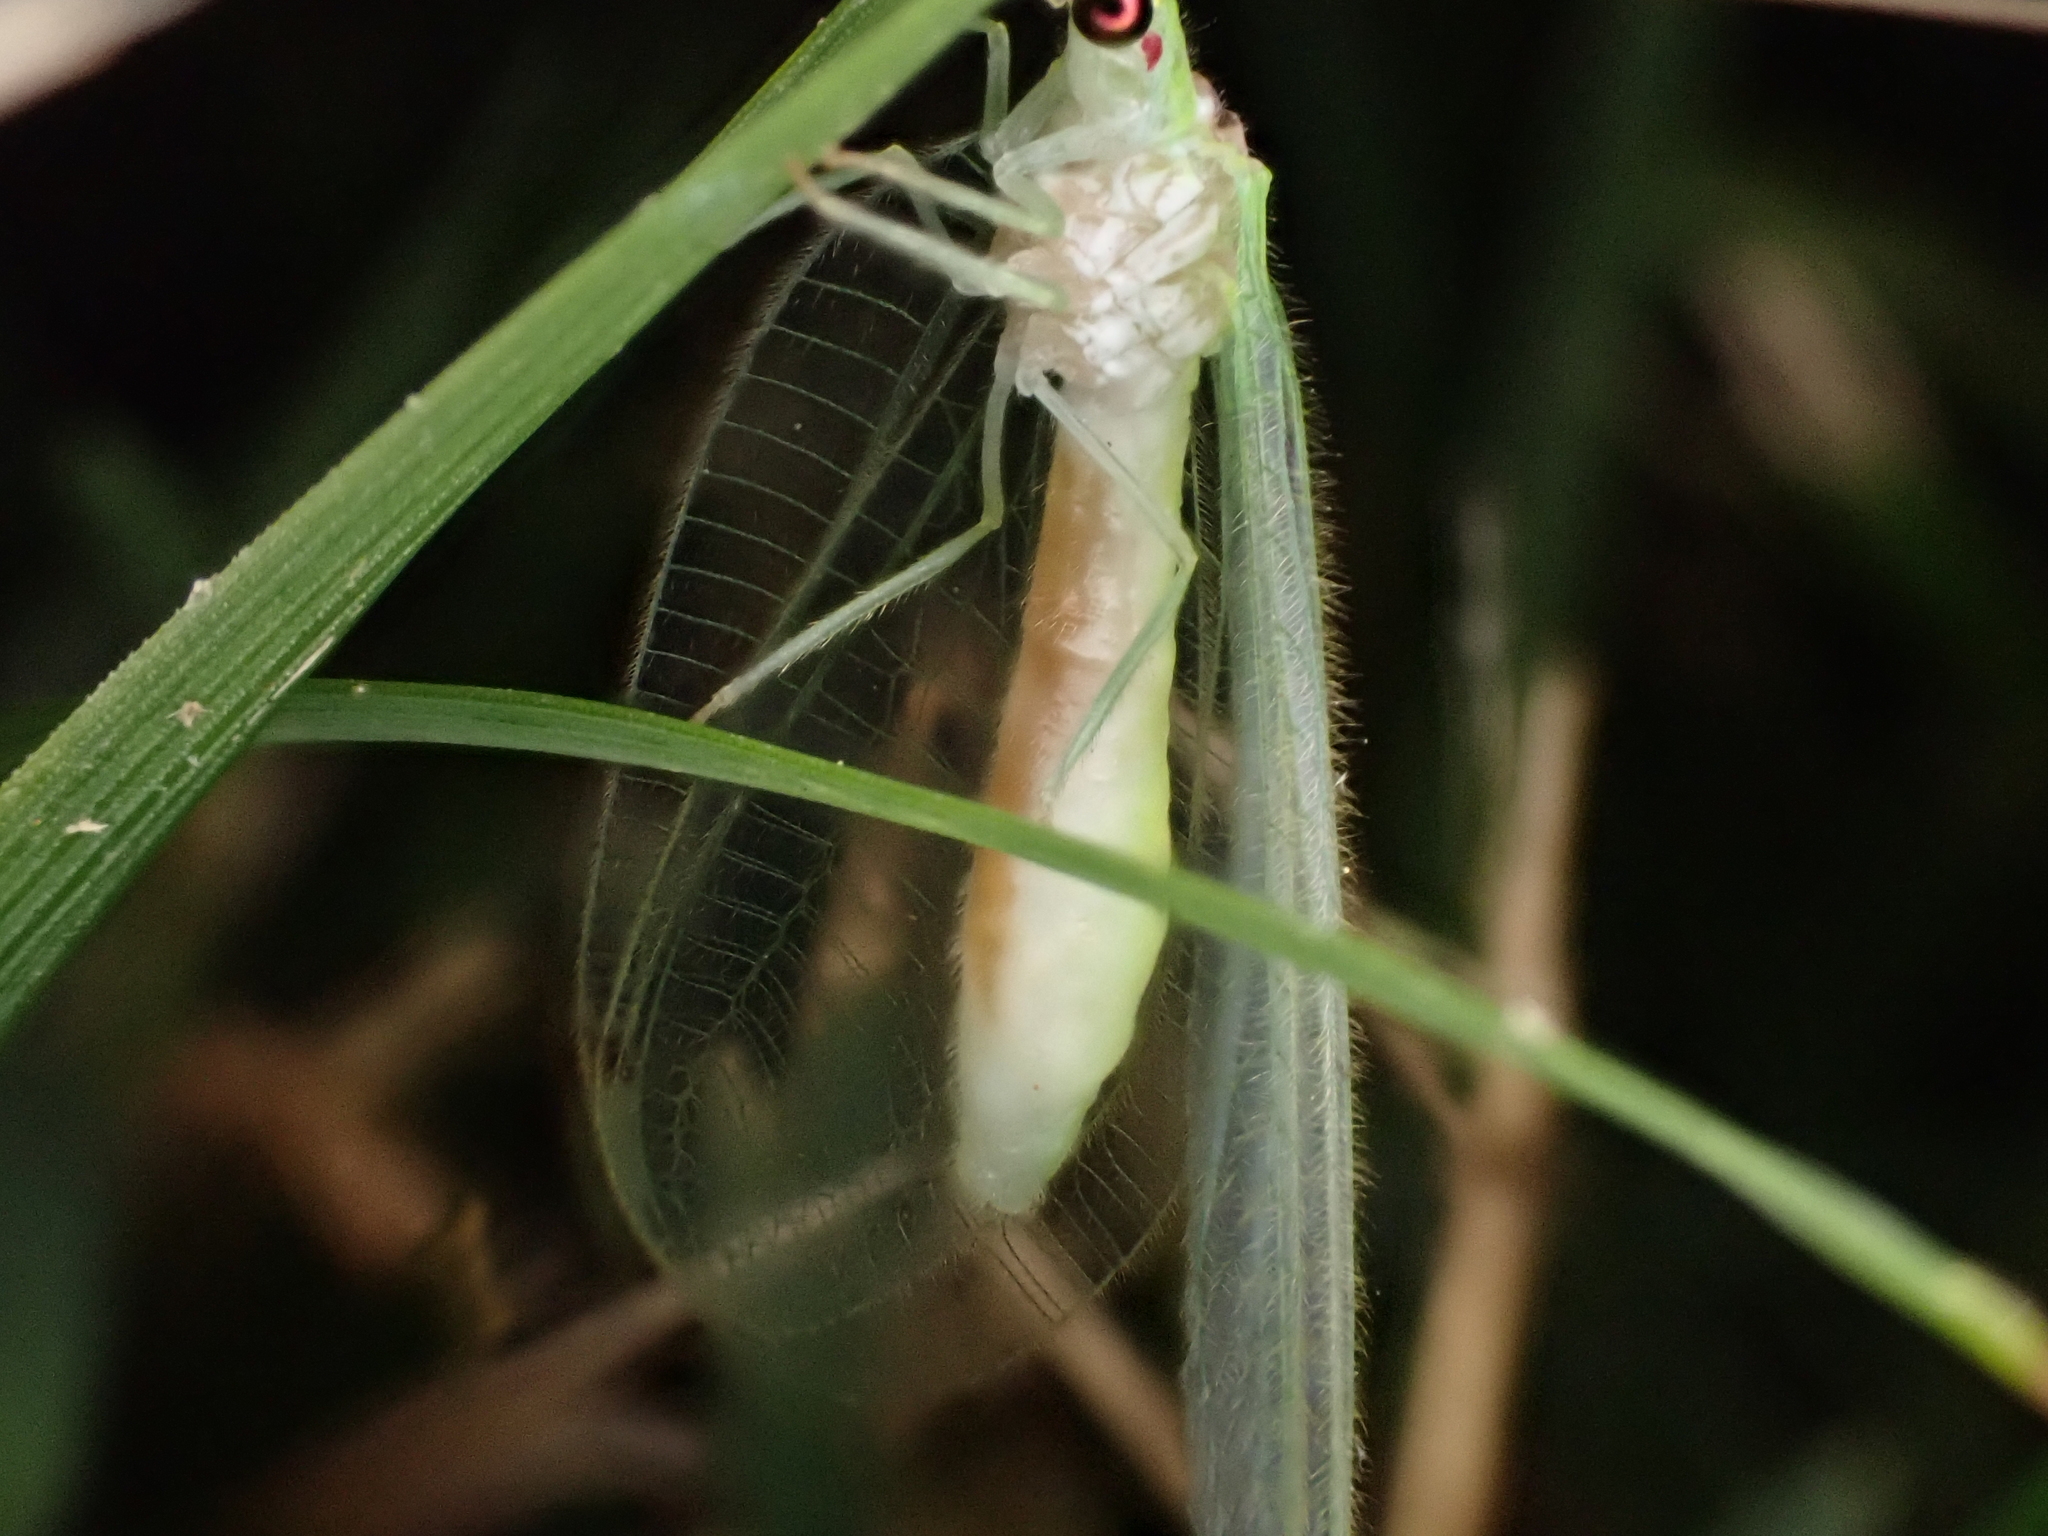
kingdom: Animalia
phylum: Arthropoda
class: Insecta
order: Neuroptera
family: Chrysopidae
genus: Leucochrysa
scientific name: Leucochrysa insularis
